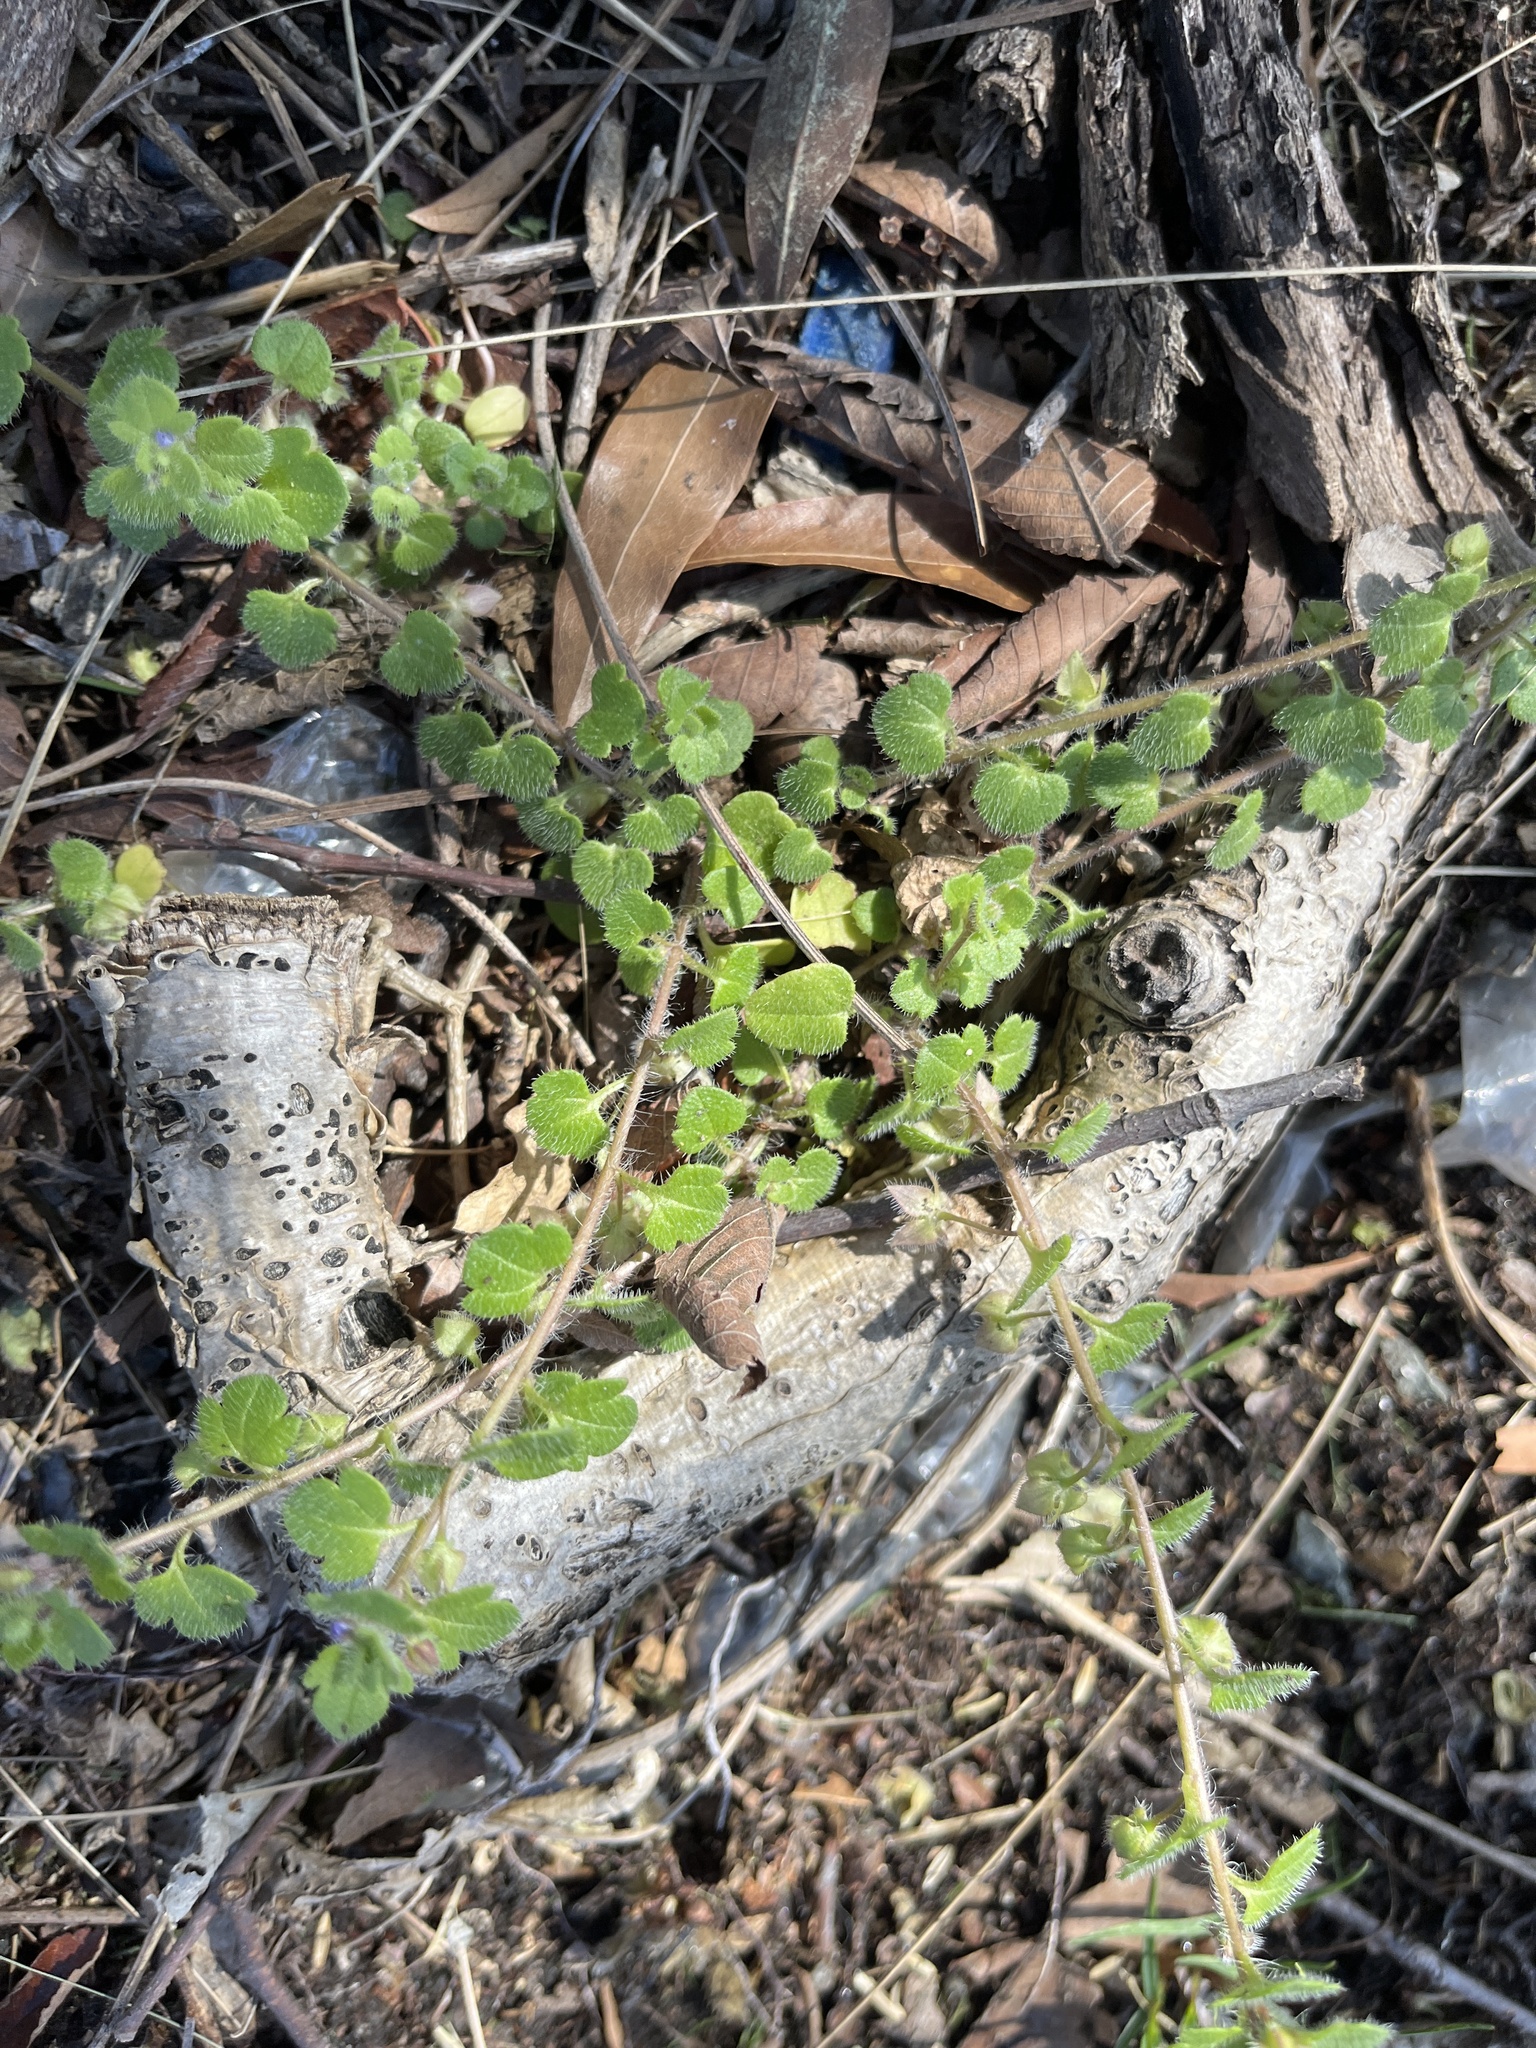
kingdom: Plantae
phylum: Tracheophyta
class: Magnoliopsida
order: Lamiales
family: Plantaginaceae
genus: Veronica
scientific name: Veronica hederifolia
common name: Ivy-leaved speedwell
